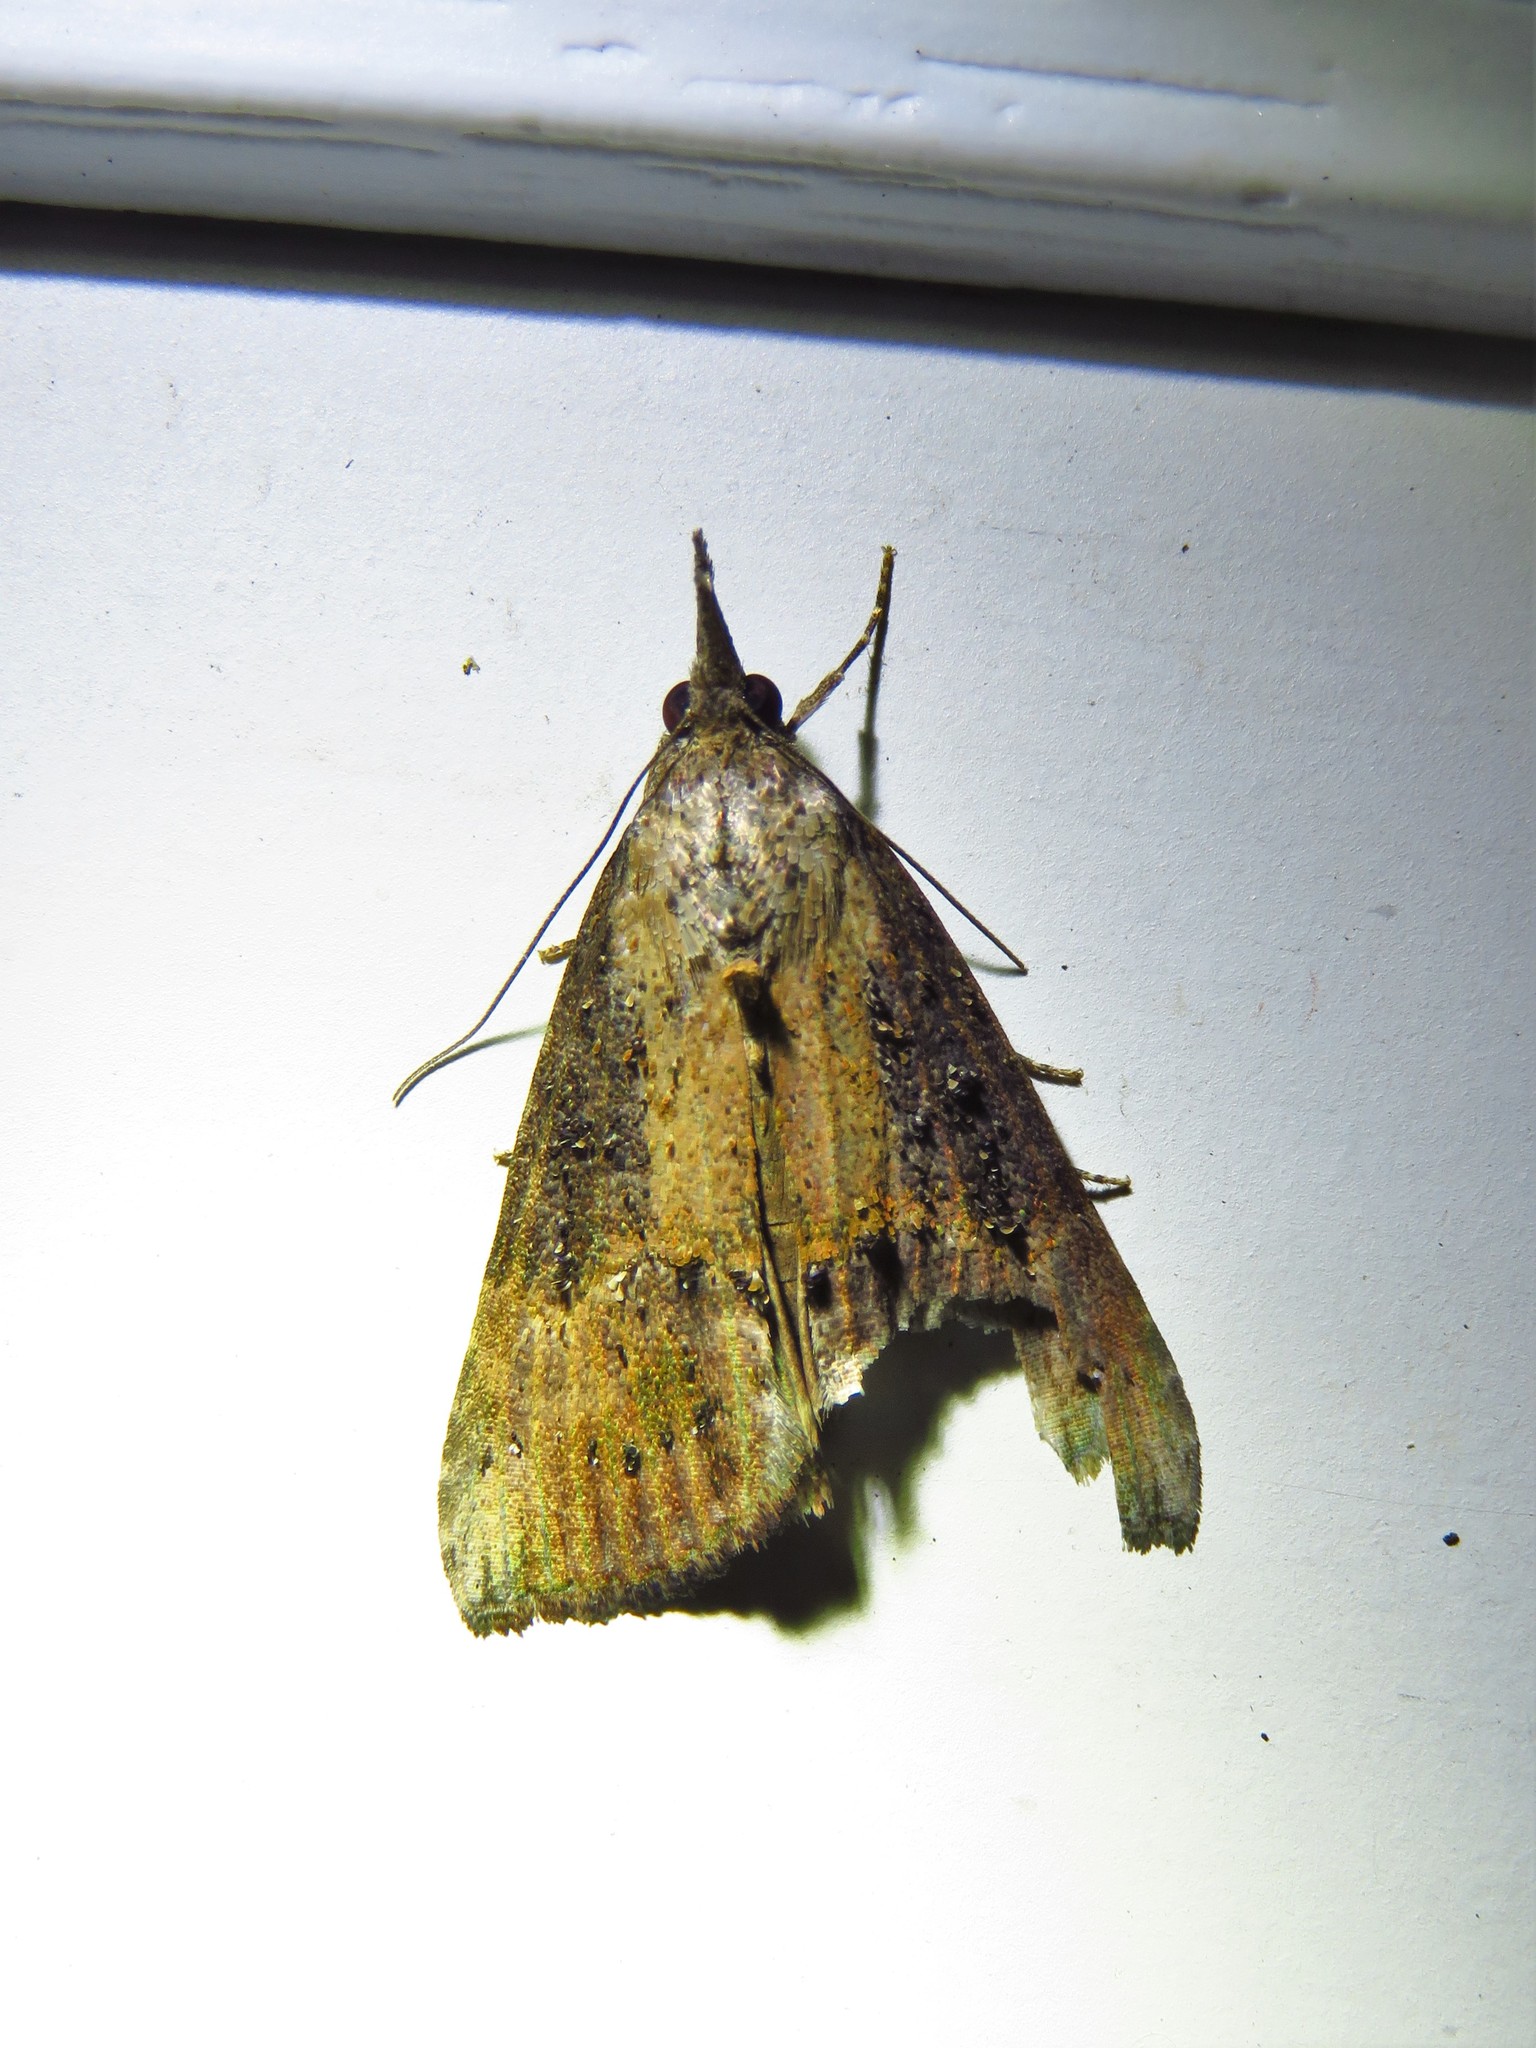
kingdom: Animalia
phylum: Arthropoda
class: Insecta
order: Lepidoptera
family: Erebidae
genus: Hypena
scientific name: Hypena scabra
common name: Green cloverworm
